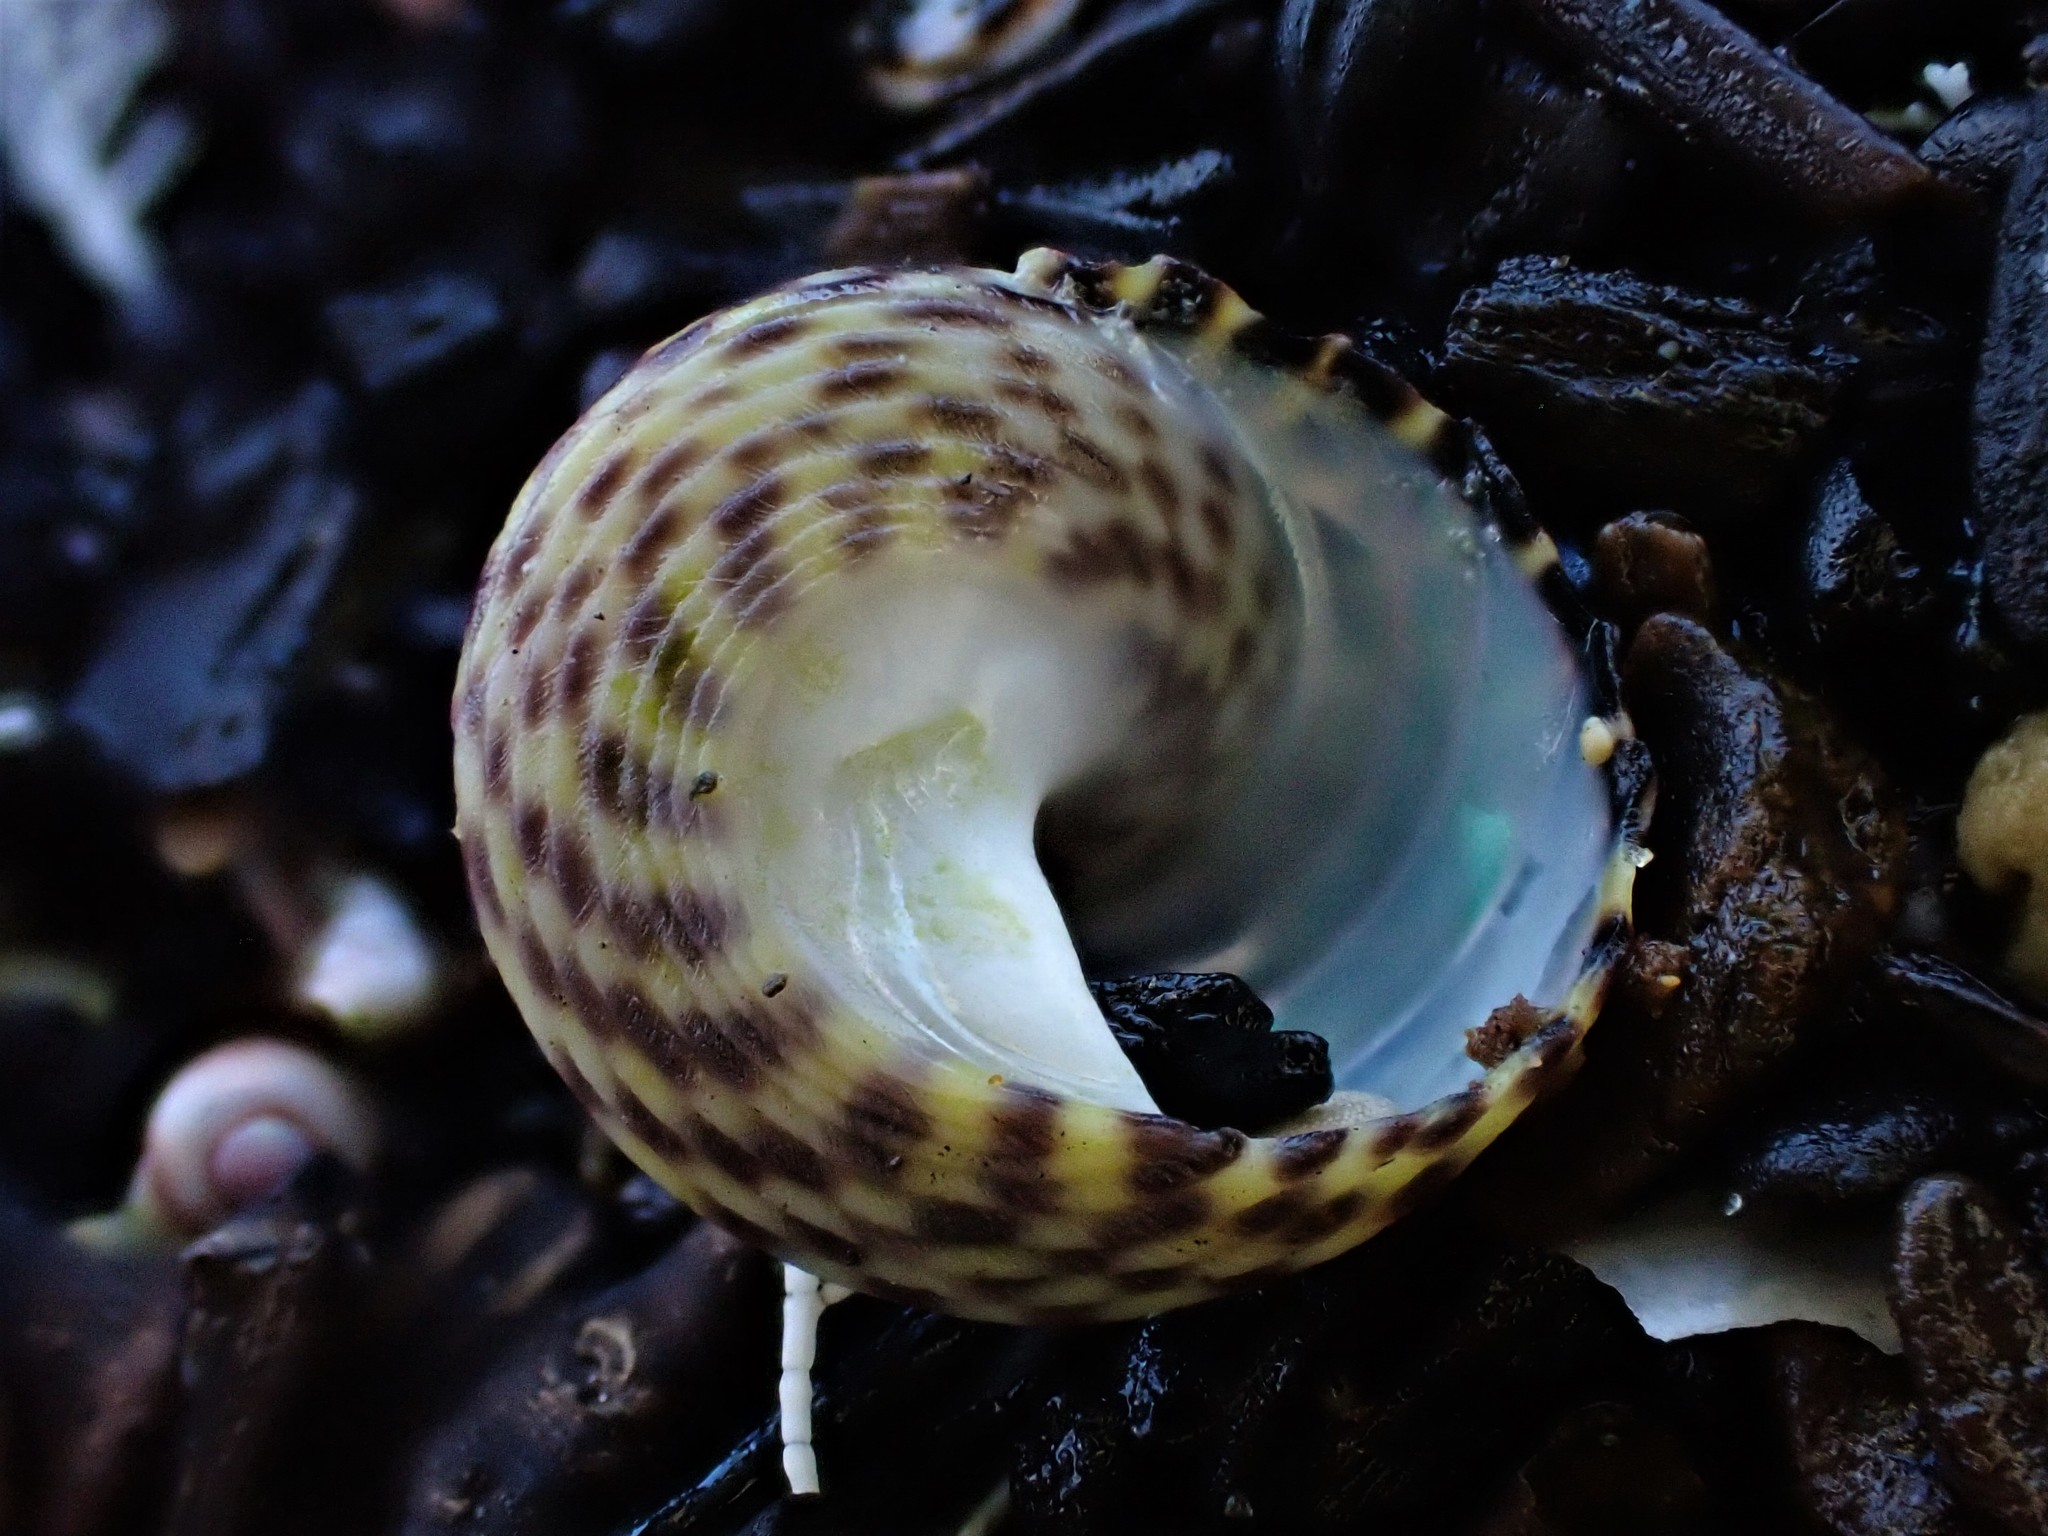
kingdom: Animalia
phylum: Mollusca
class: Gastropoda
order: Trochida
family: Trochidae
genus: Diloma
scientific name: Diloma subrostratum
